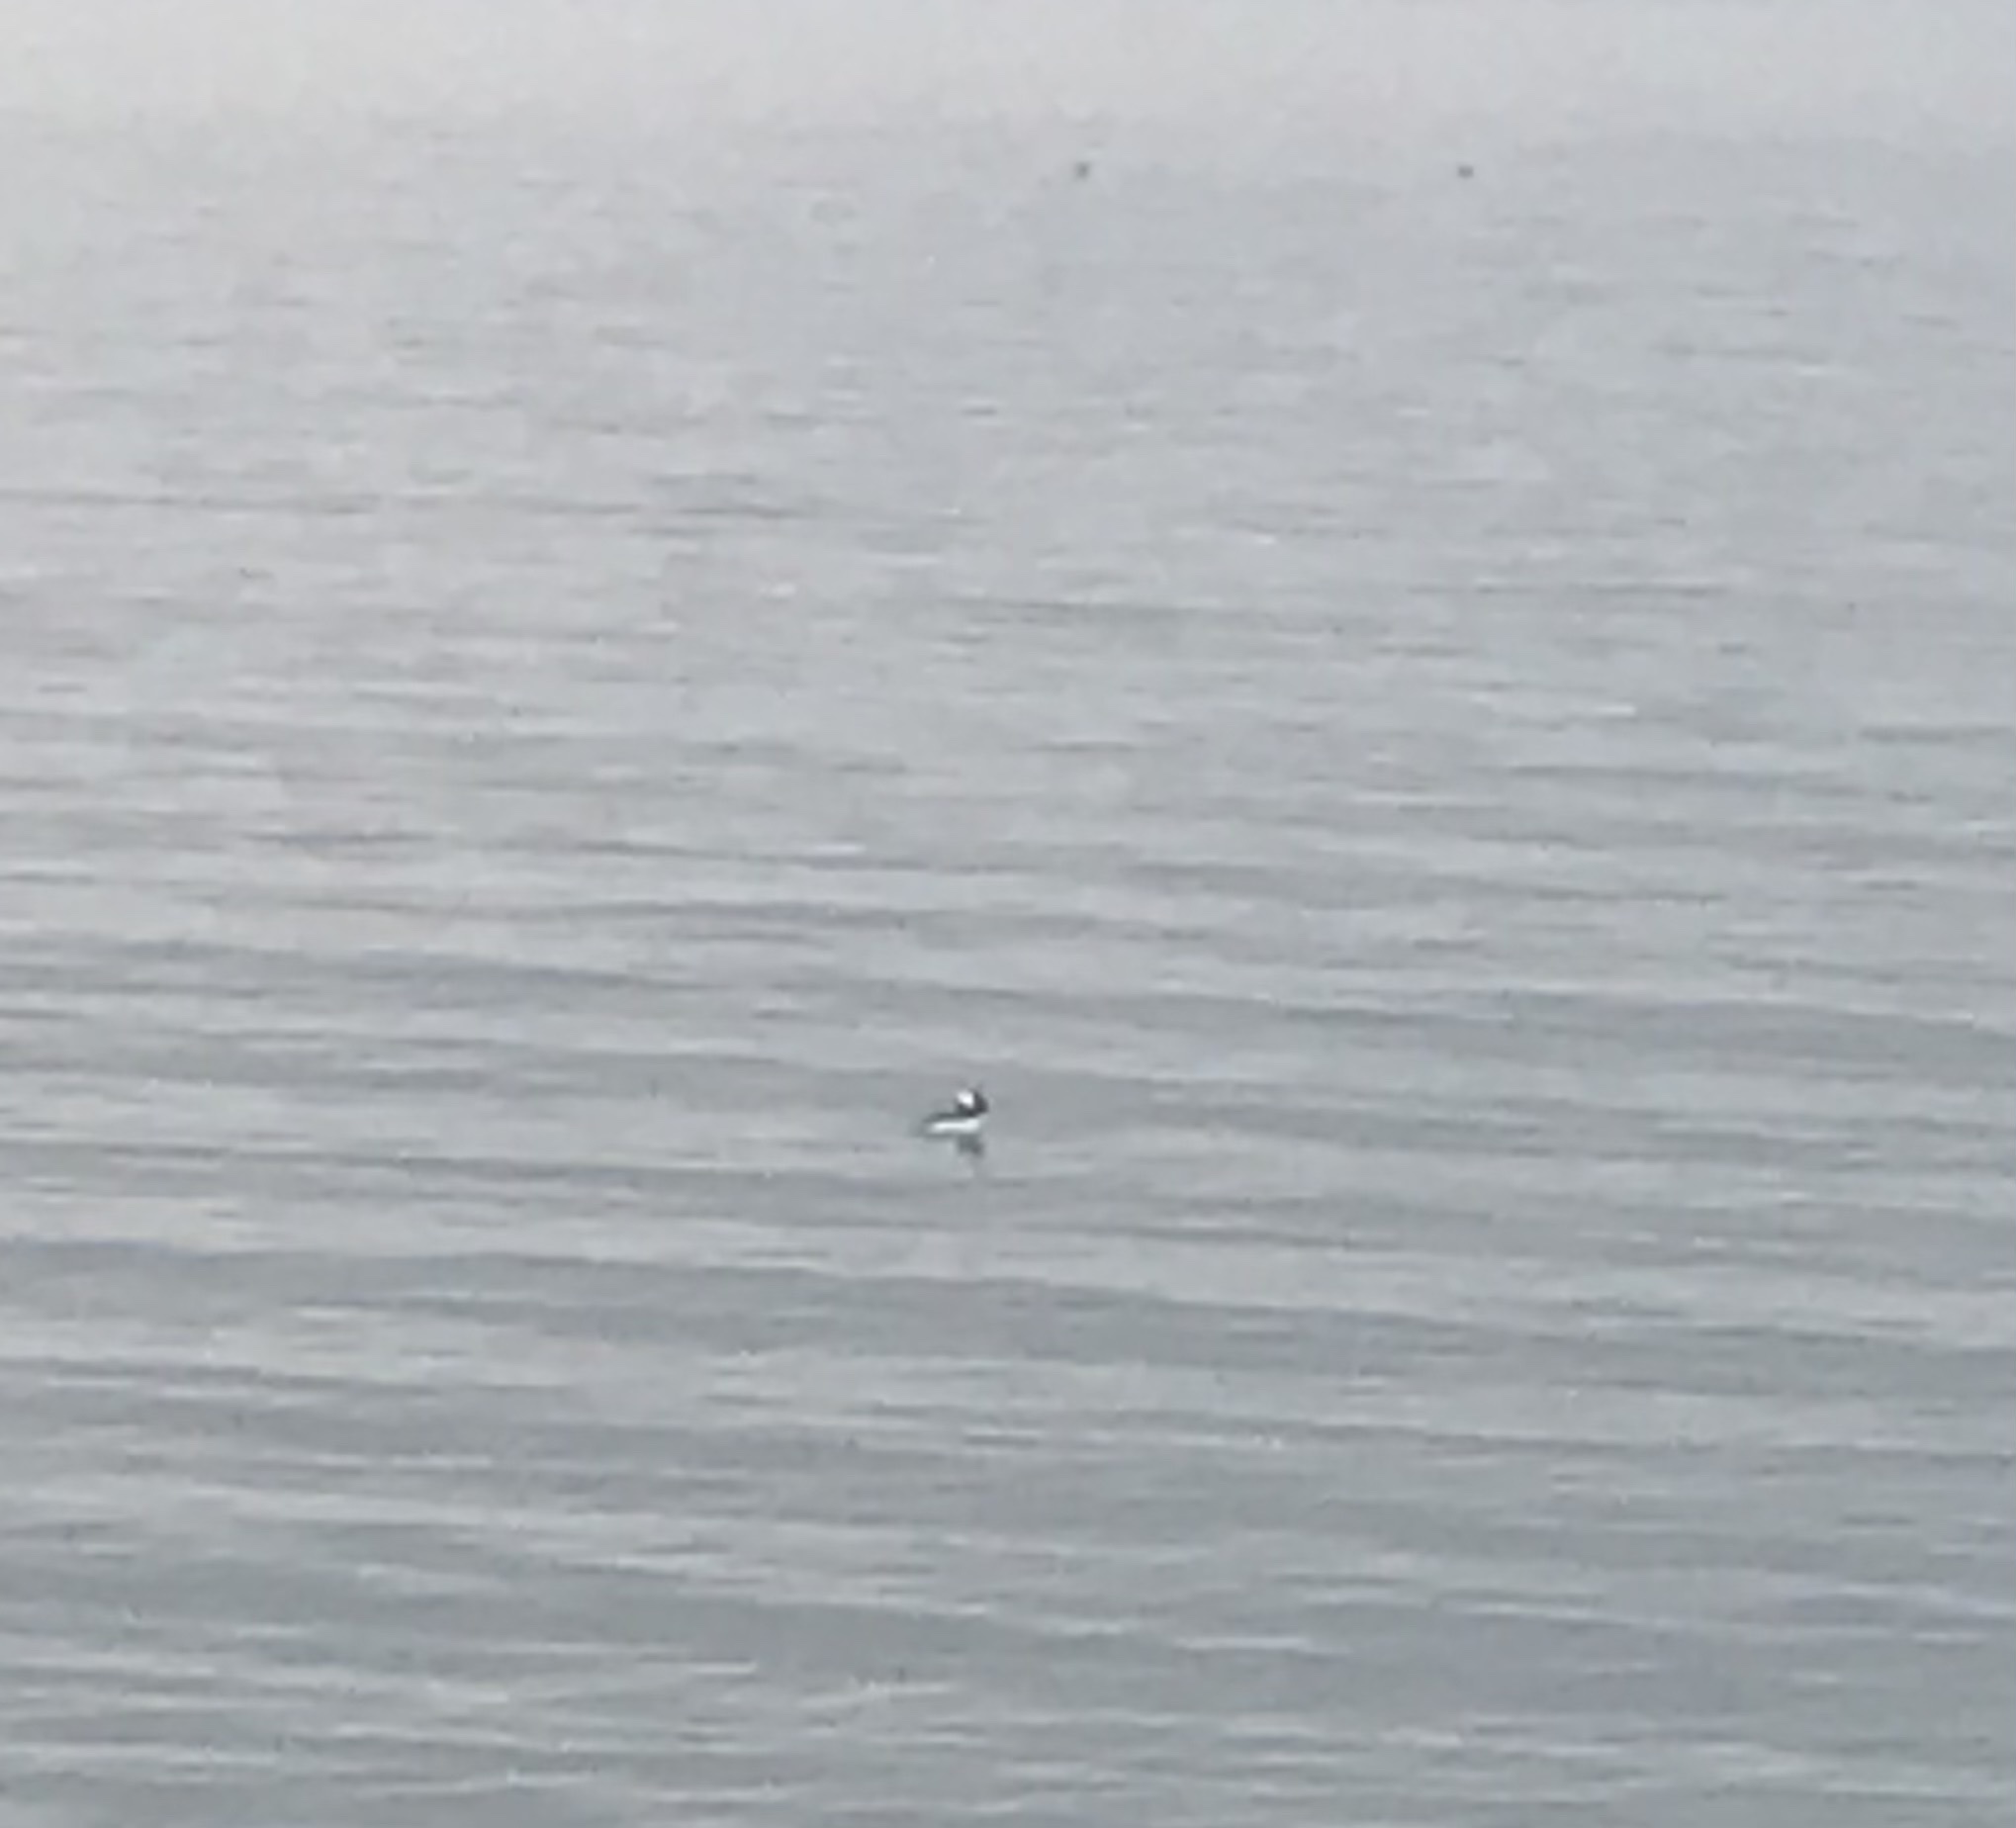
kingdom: Animalia
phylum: Chordata
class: Aves
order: Anseriformes
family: Anatidae
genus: Bucephala
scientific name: Bucephala albeola
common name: Bufflehead
